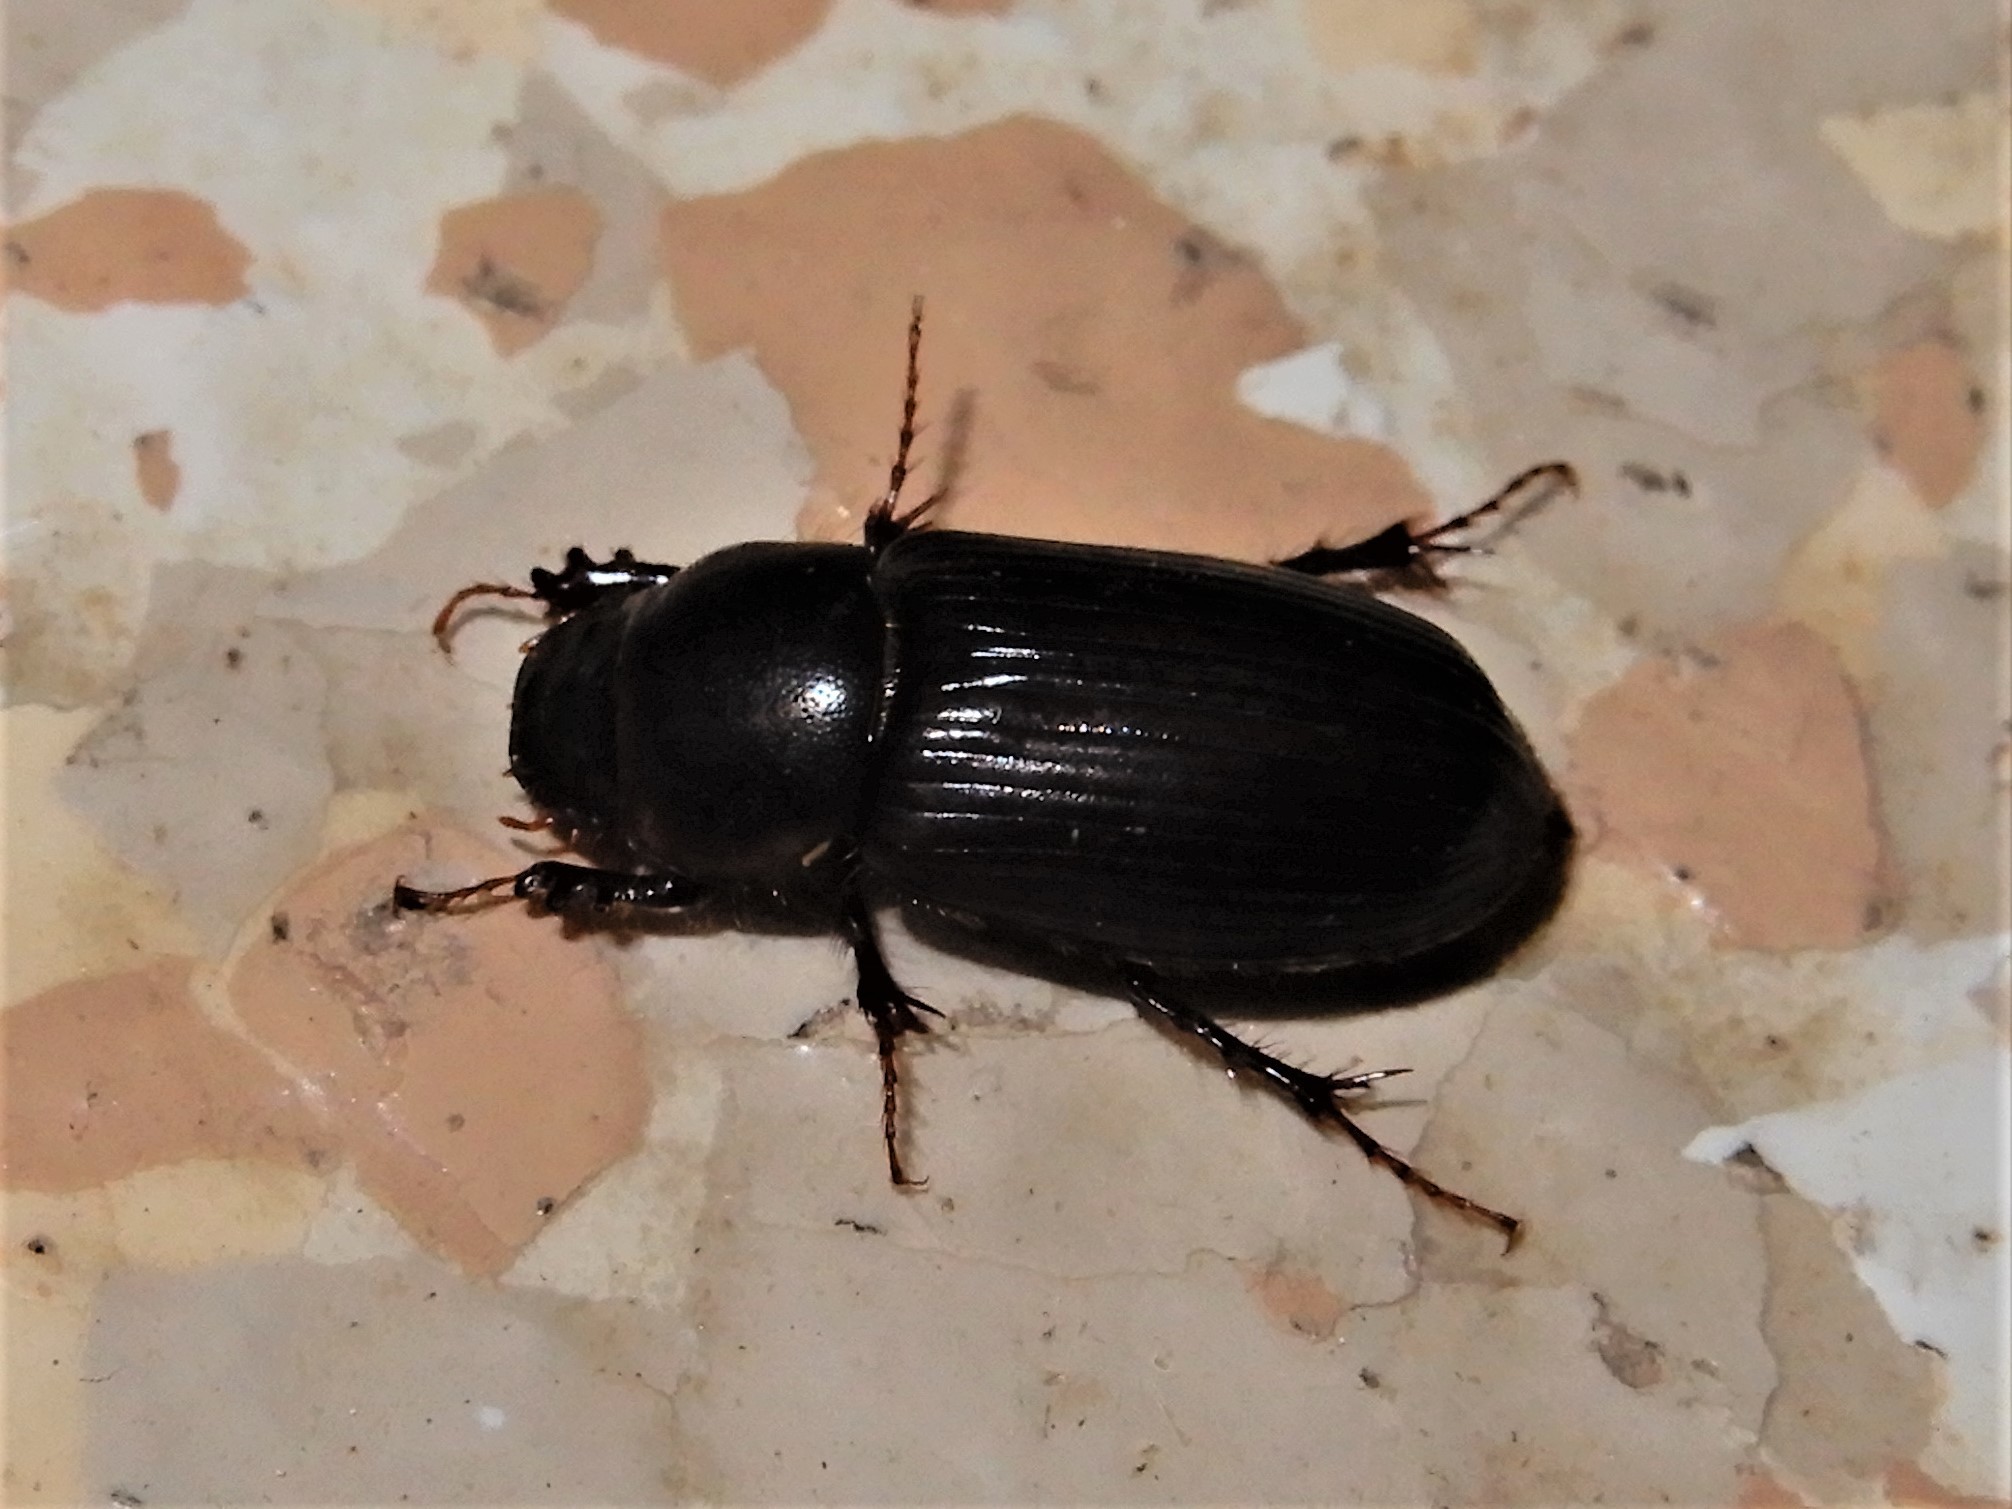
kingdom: Animalia
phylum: Arthropoda
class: Insecta
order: Coleoptera
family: Scarabaeidae
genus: Acrossidius
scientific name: Acrossidius tasmaniae
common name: Black-headed pasture cockchafer
